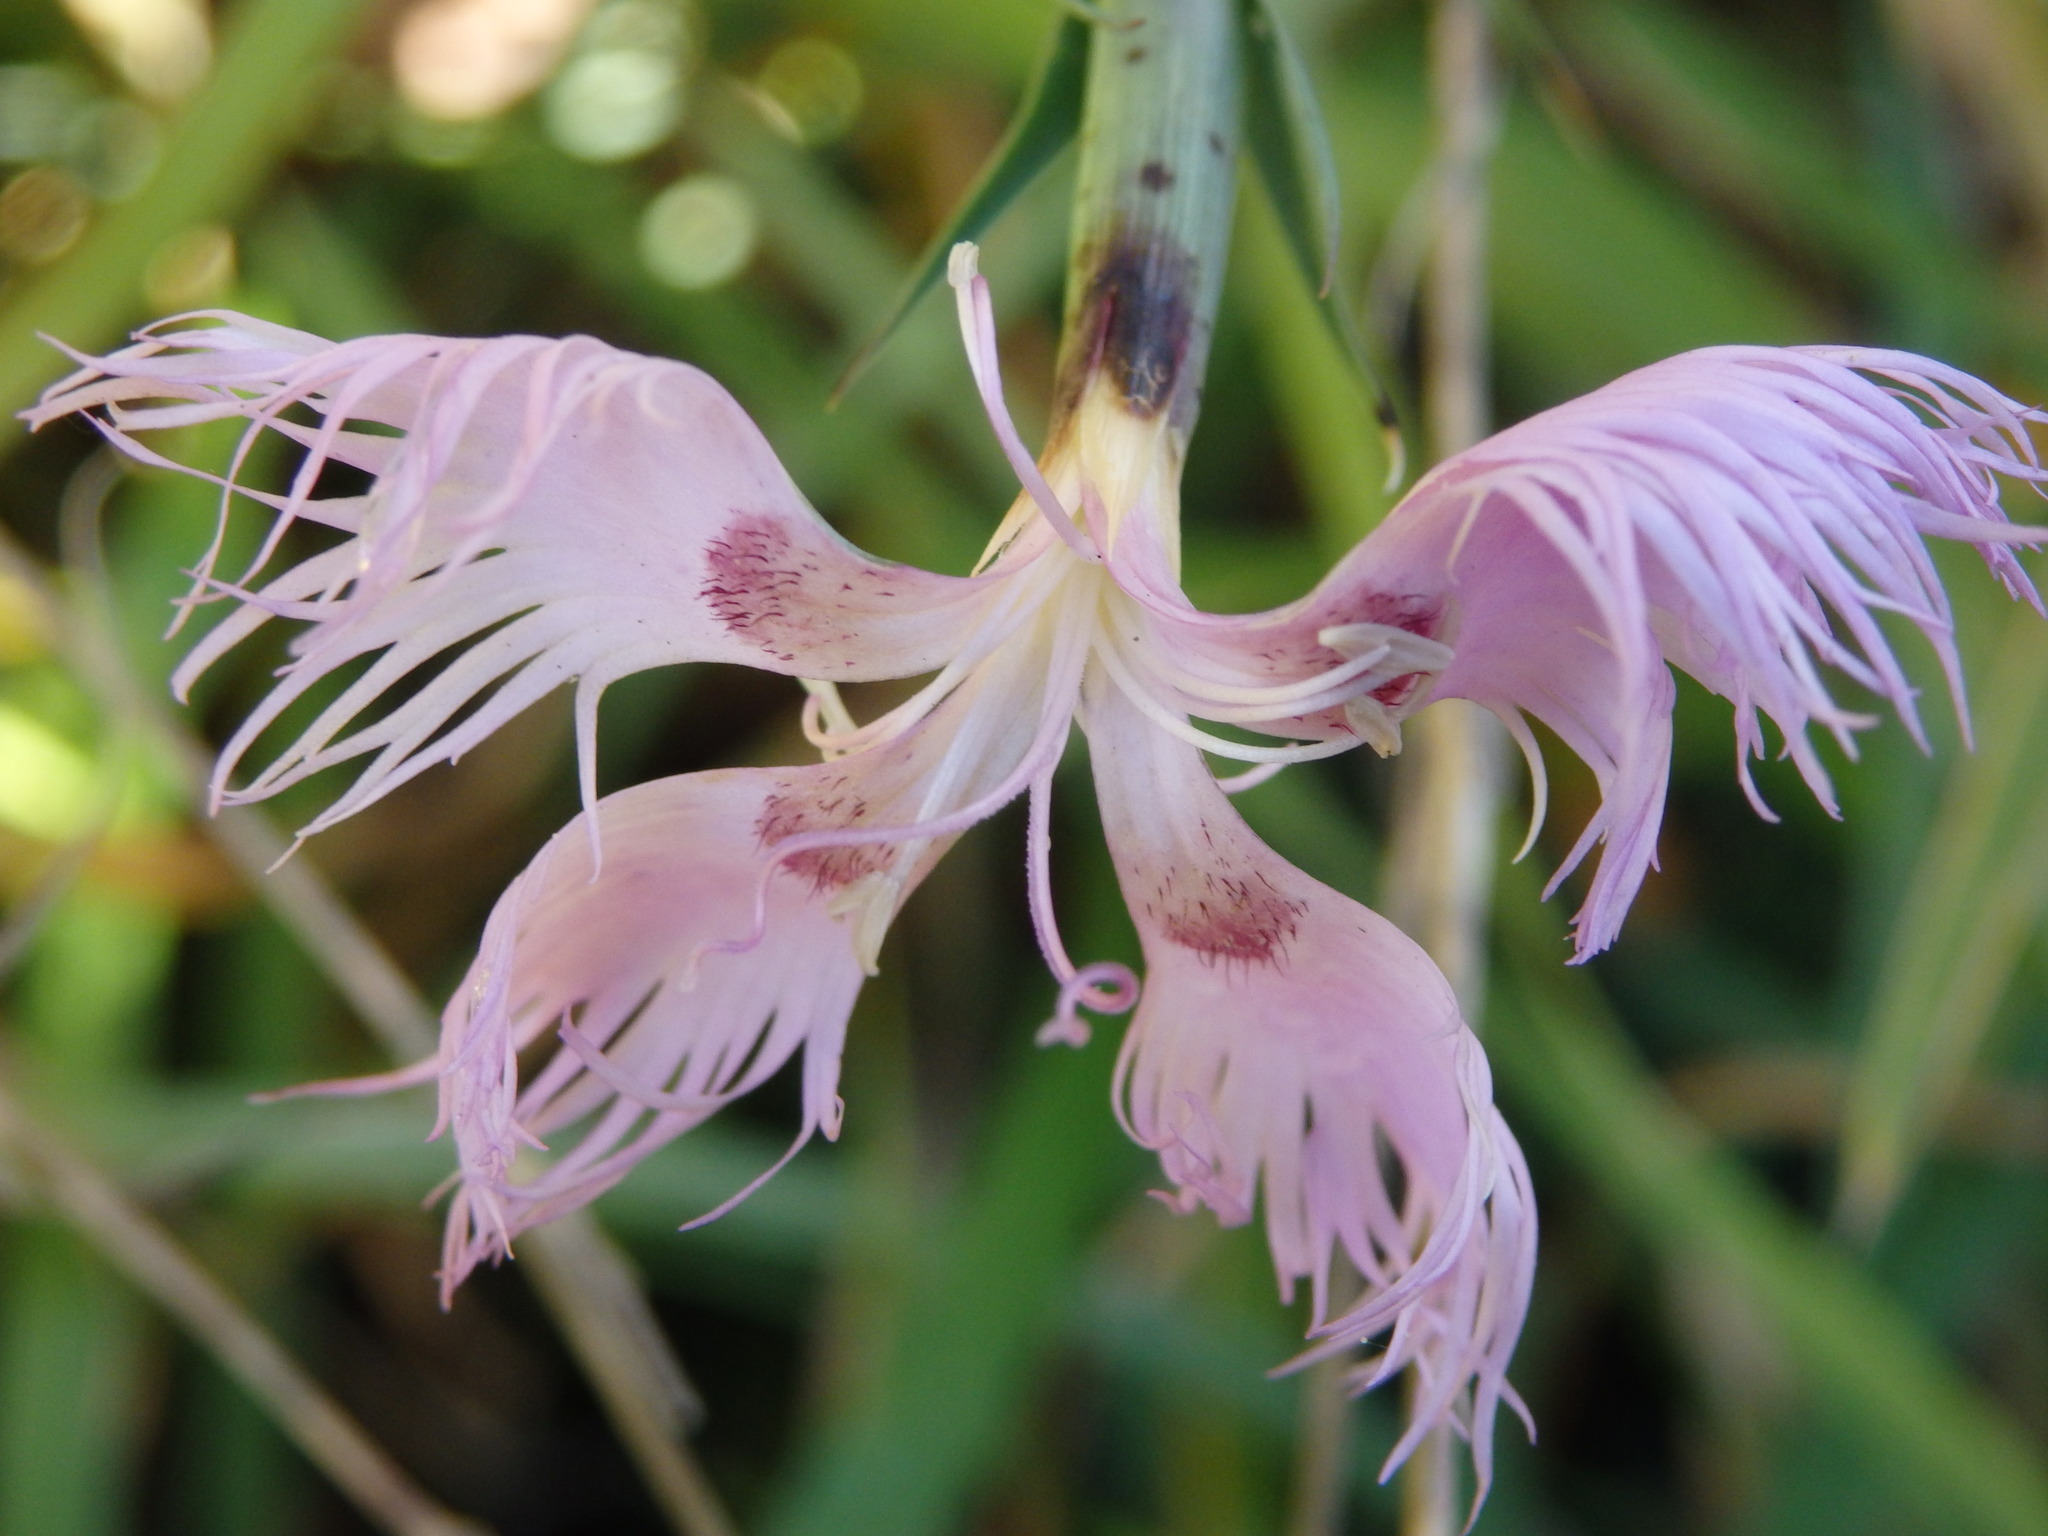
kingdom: Plantae
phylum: Tracheophyta
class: Magnoliopsida
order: Caryophyllales
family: Caryophyllaceae
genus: Dianthus
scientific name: Dianthus hyssopifolius
